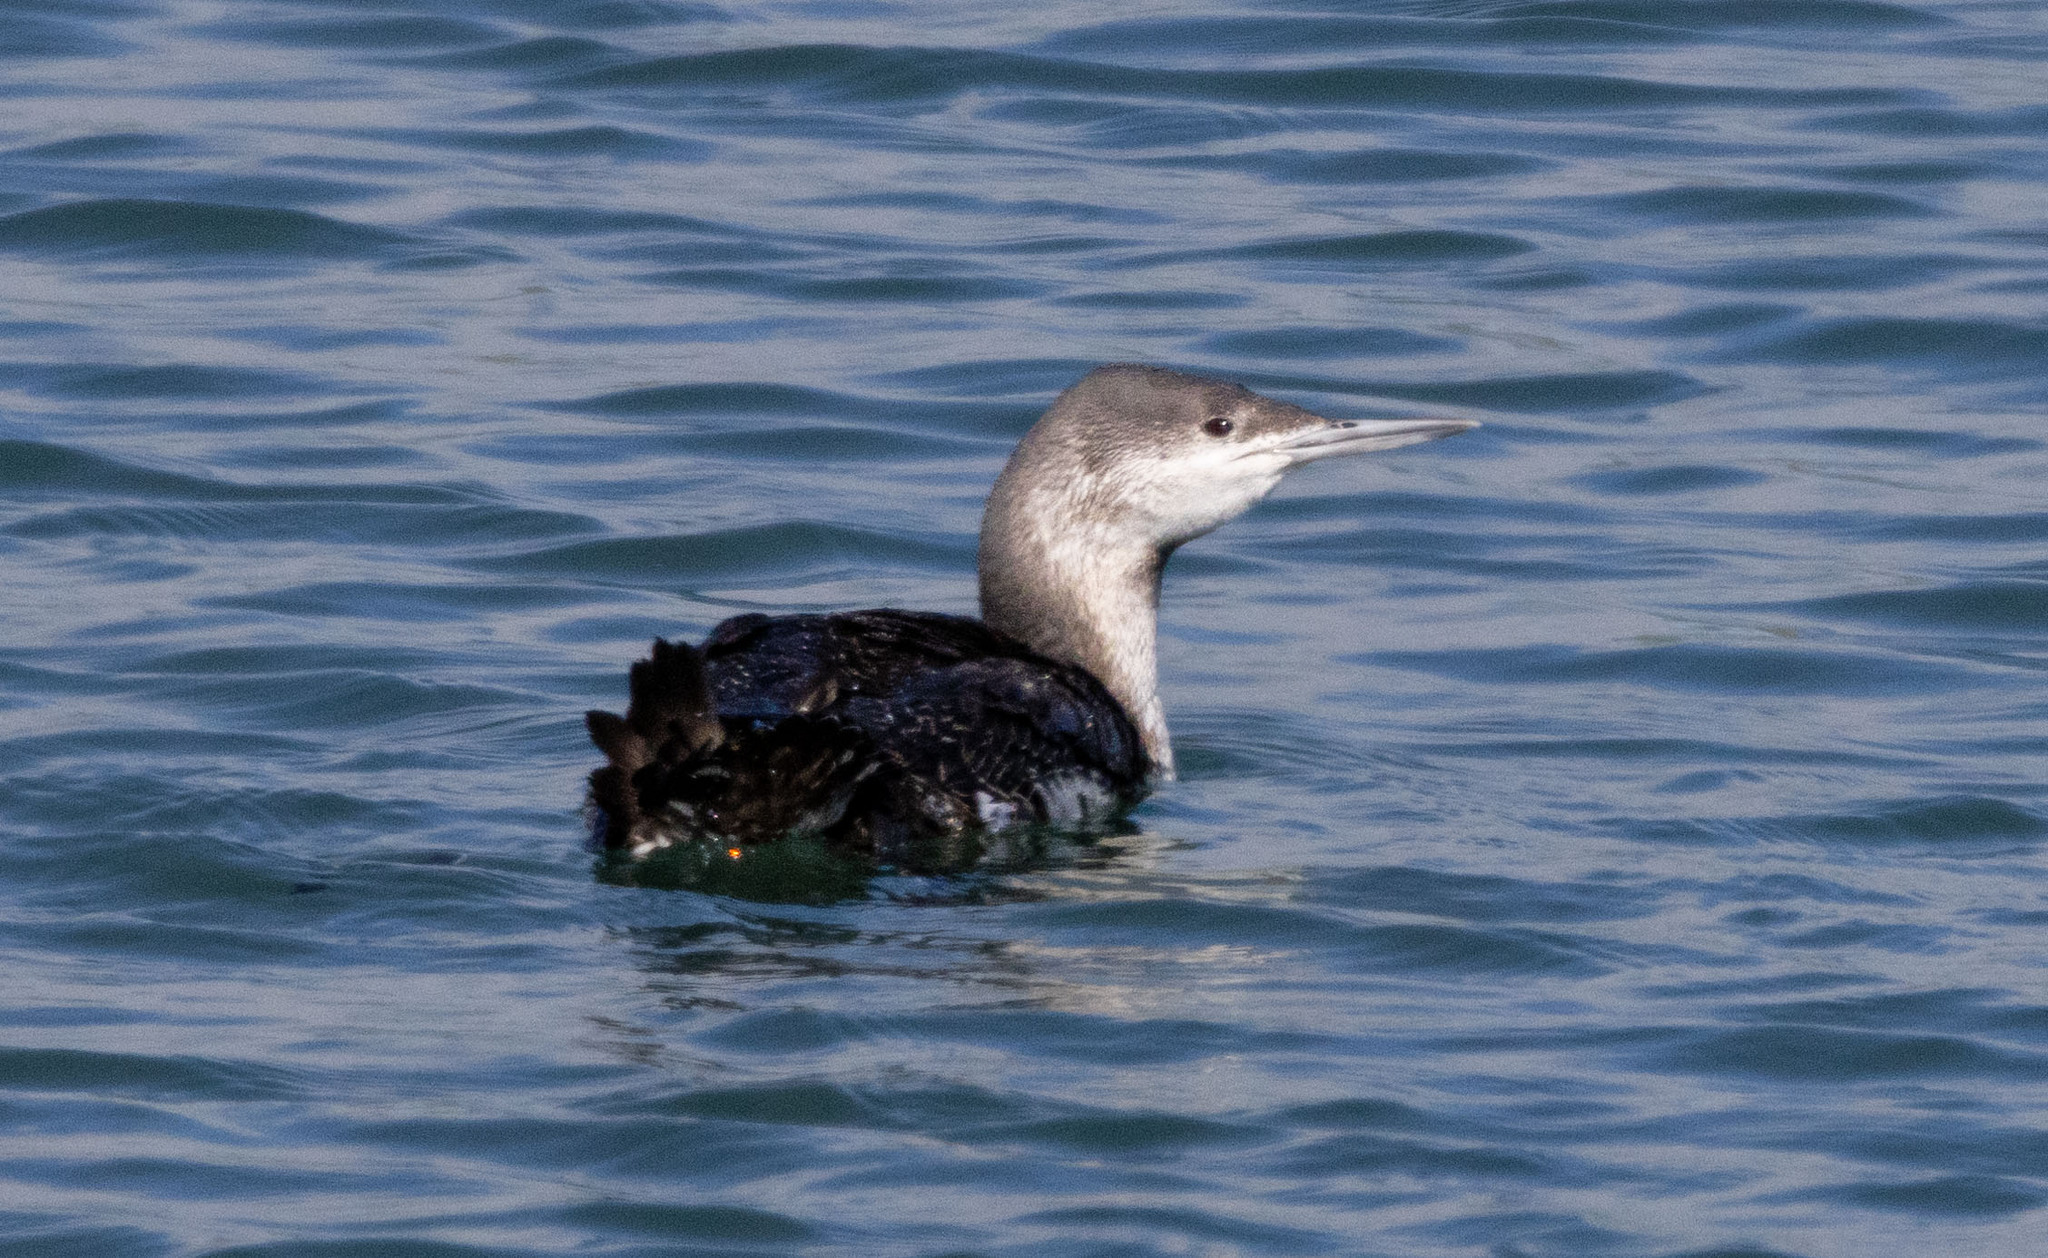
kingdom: Animalia
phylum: Chordata
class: Aves
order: Gaviiformes
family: Gaviidae
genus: Gavia
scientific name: Gavia stellata
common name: Red-throated loon
